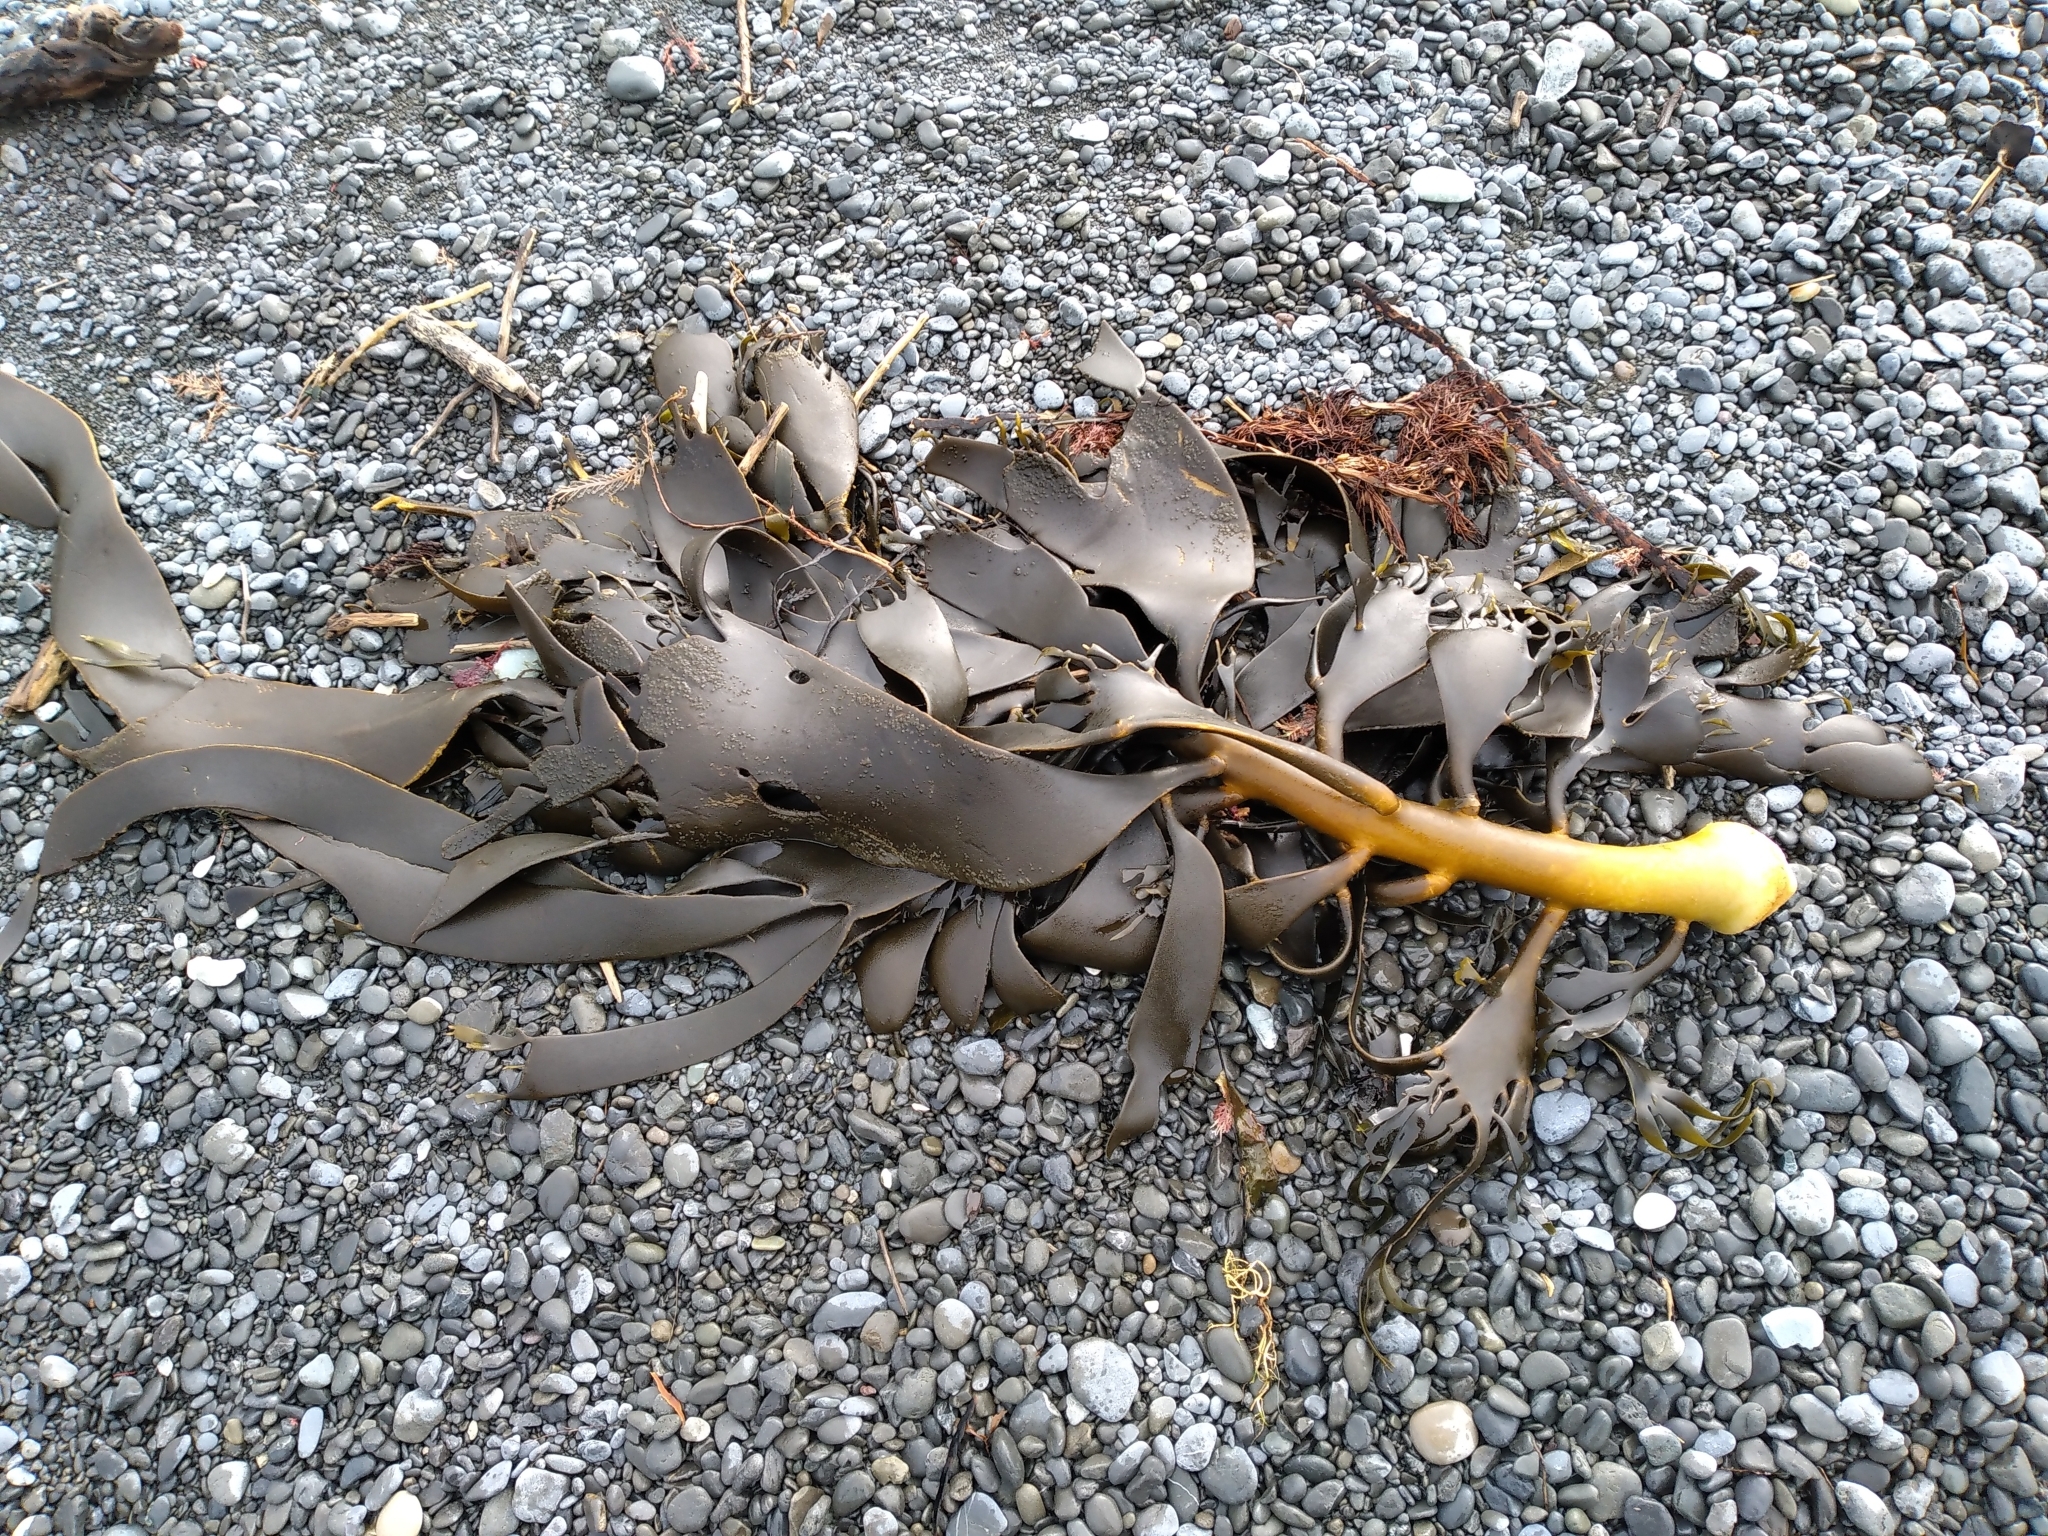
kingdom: Chromista
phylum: Ochrophyta
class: Phaeophyceae
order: Fucales
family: Durvillaeaceae
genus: Durvillaea
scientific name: Durvillaea willana
